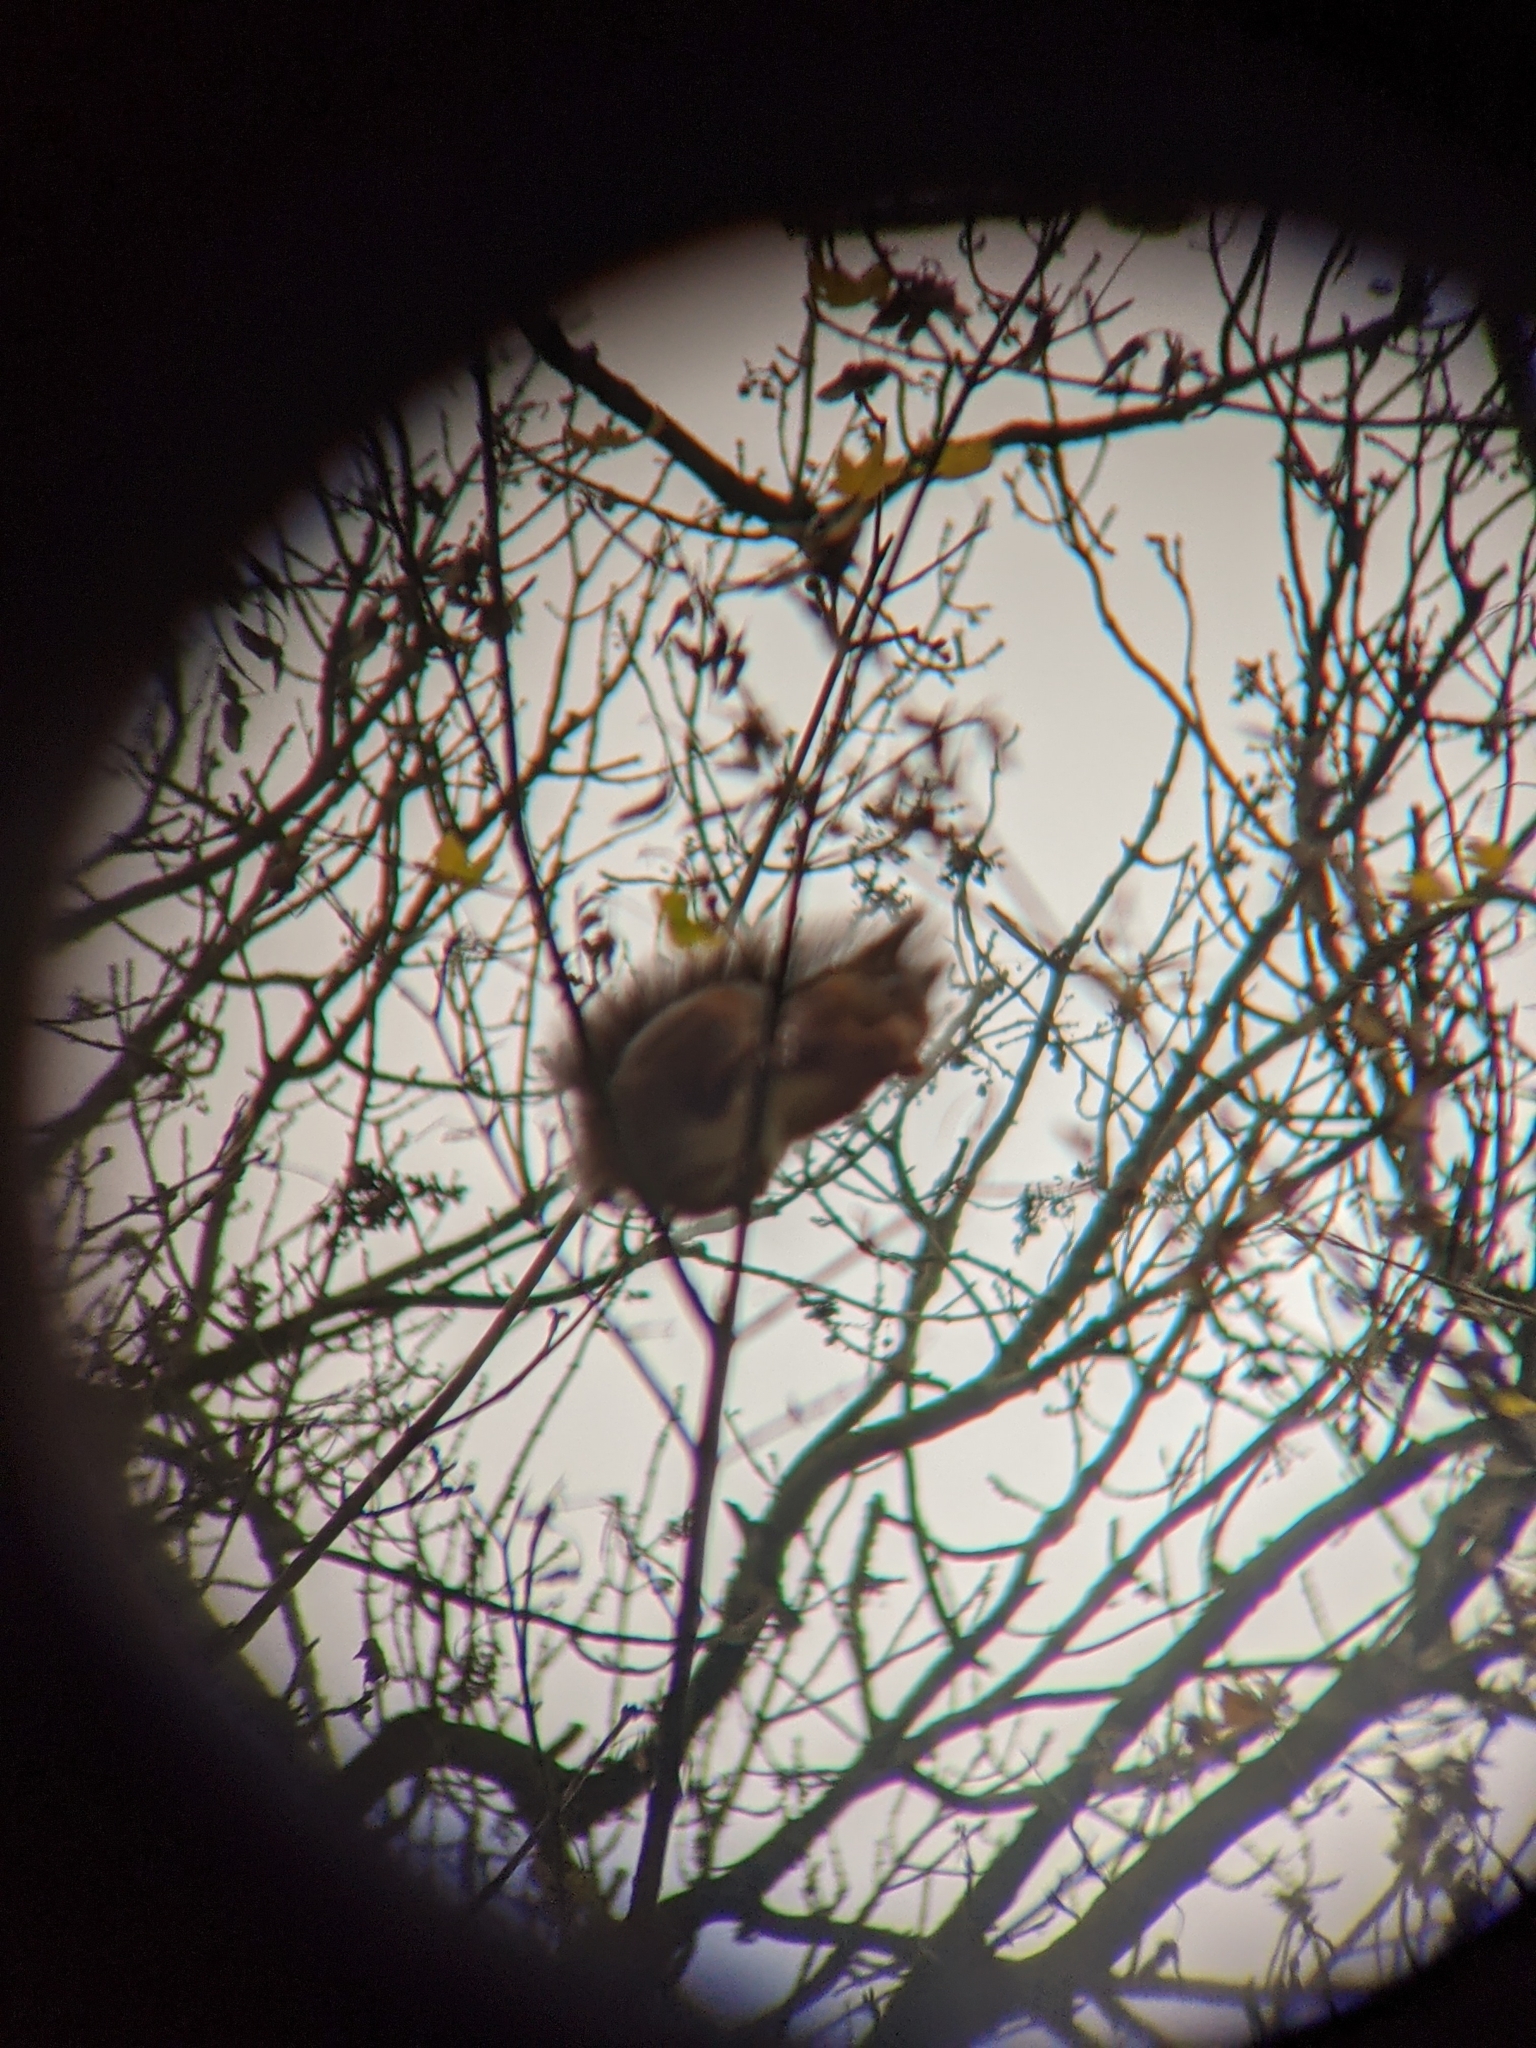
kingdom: Animalia
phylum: Chordata
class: Mammalia
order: Rodentia
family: Sciuridae
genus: Sciurus
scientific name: Sciurus vulgaris
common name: Eurasian red squirrel
